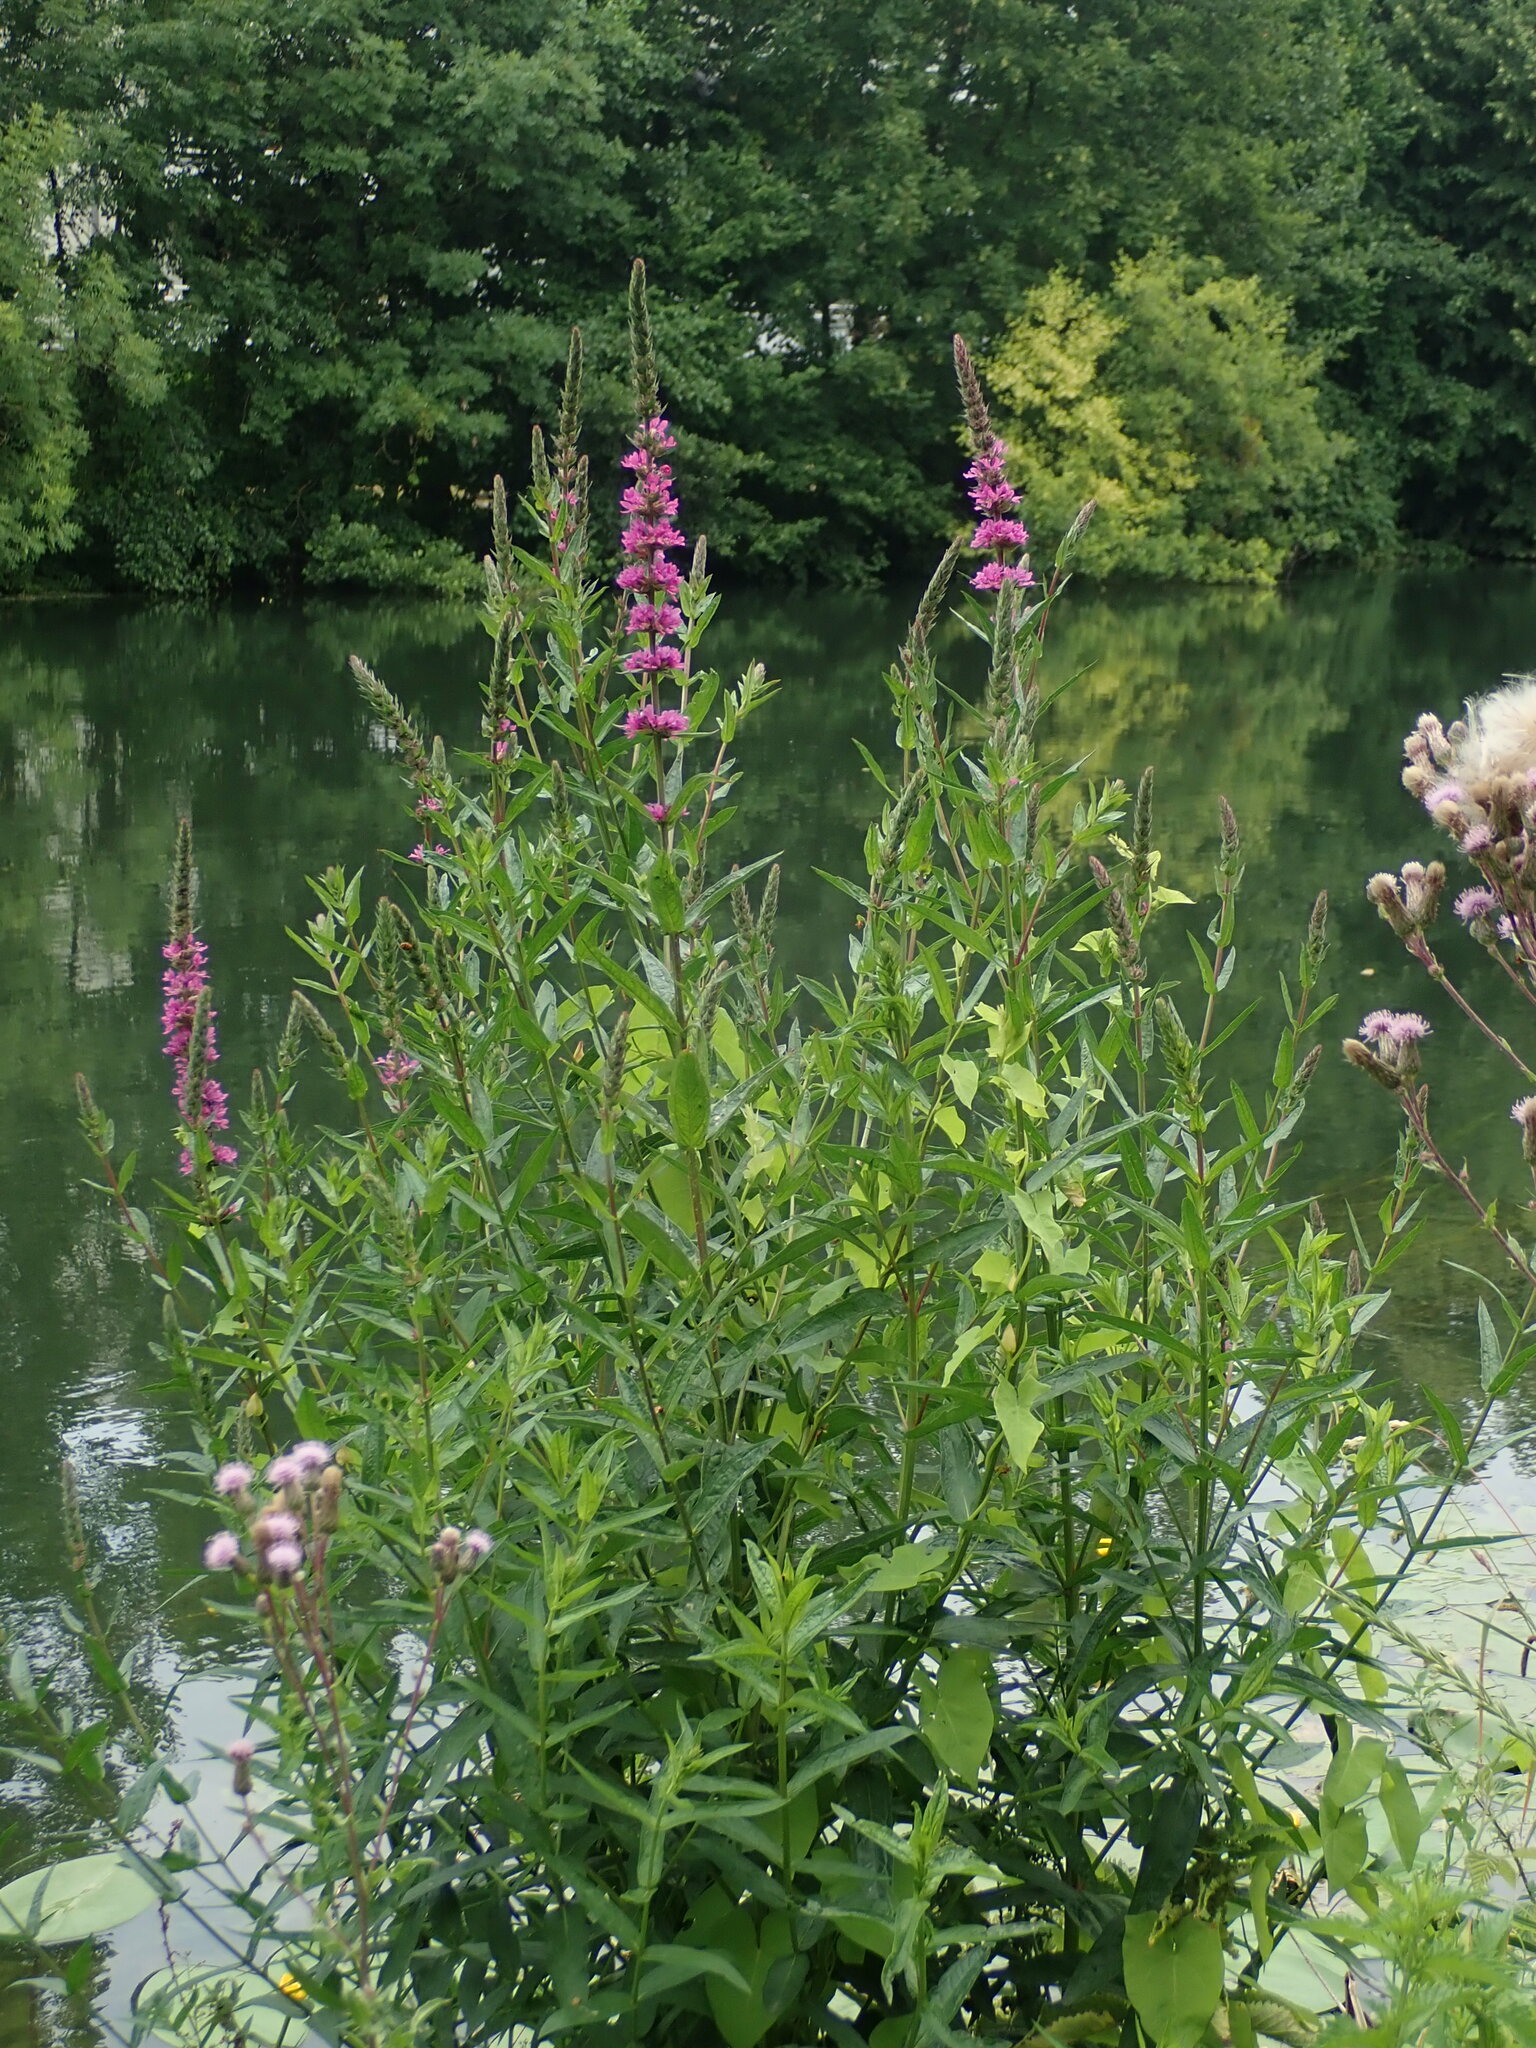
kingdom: Plantae
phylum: Tracheophyta
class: Magnoliopsida
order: Myrtales
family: Lythraceae
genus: Lythrum
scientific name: Lythrum salicaria
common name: Purple loosestrife
